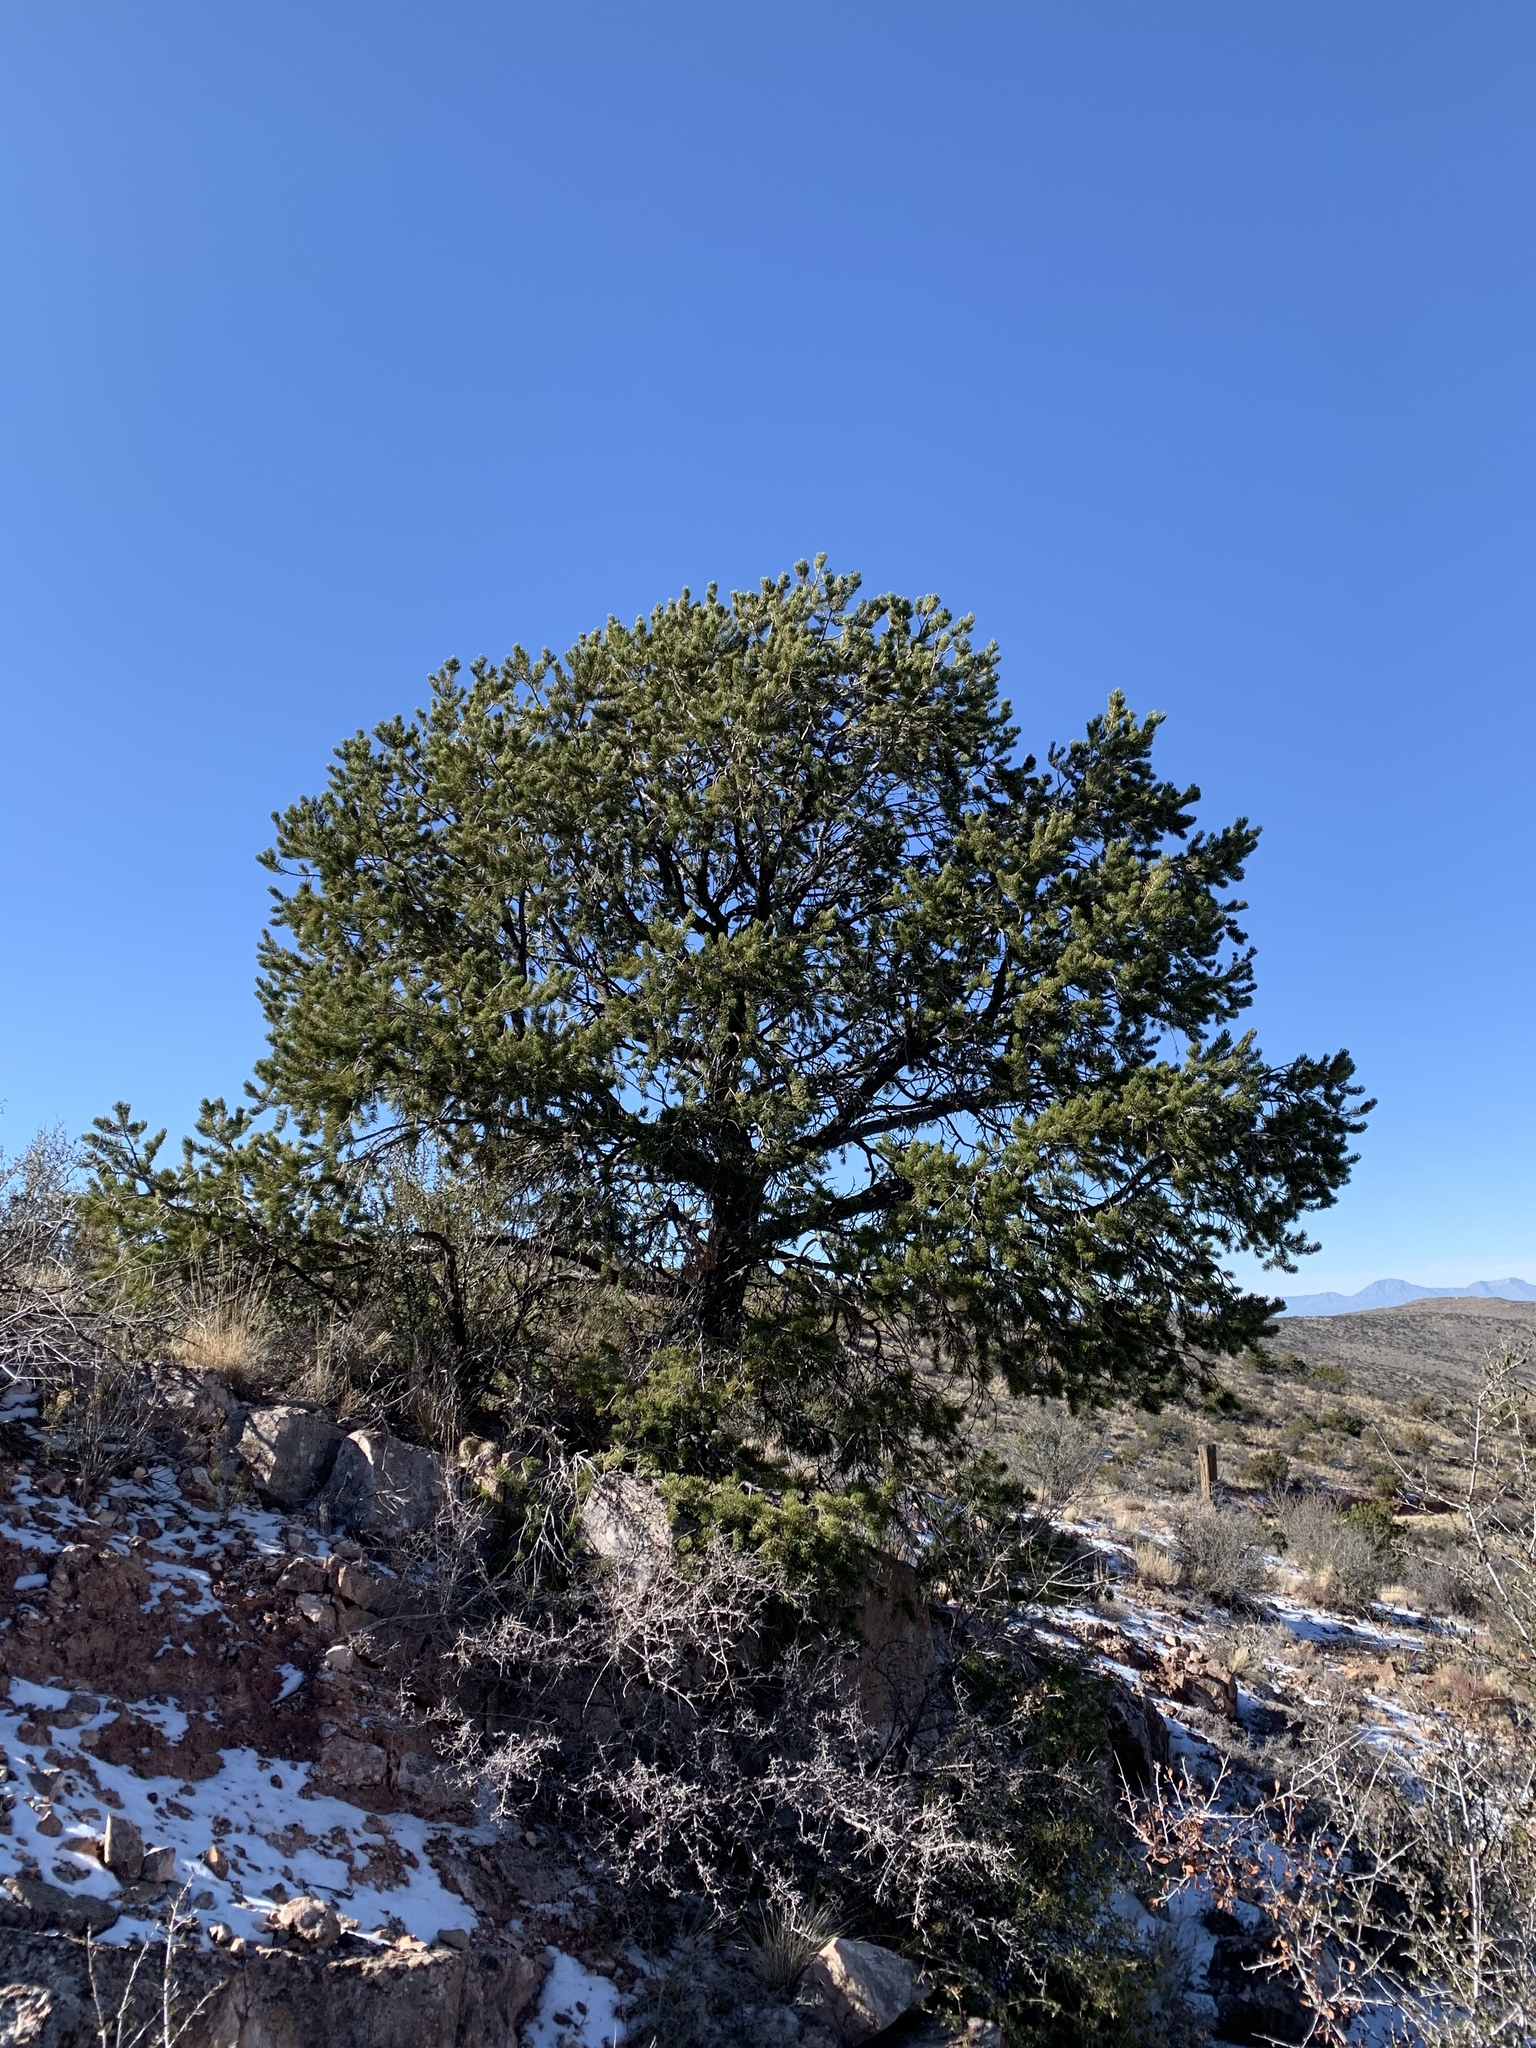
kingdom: Plantae
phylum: Tracheophyta
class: Pinopsida
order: Pinales
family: Pinaceae
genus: Pinus
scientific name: Pinus edulis
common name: Colorado pinyon
